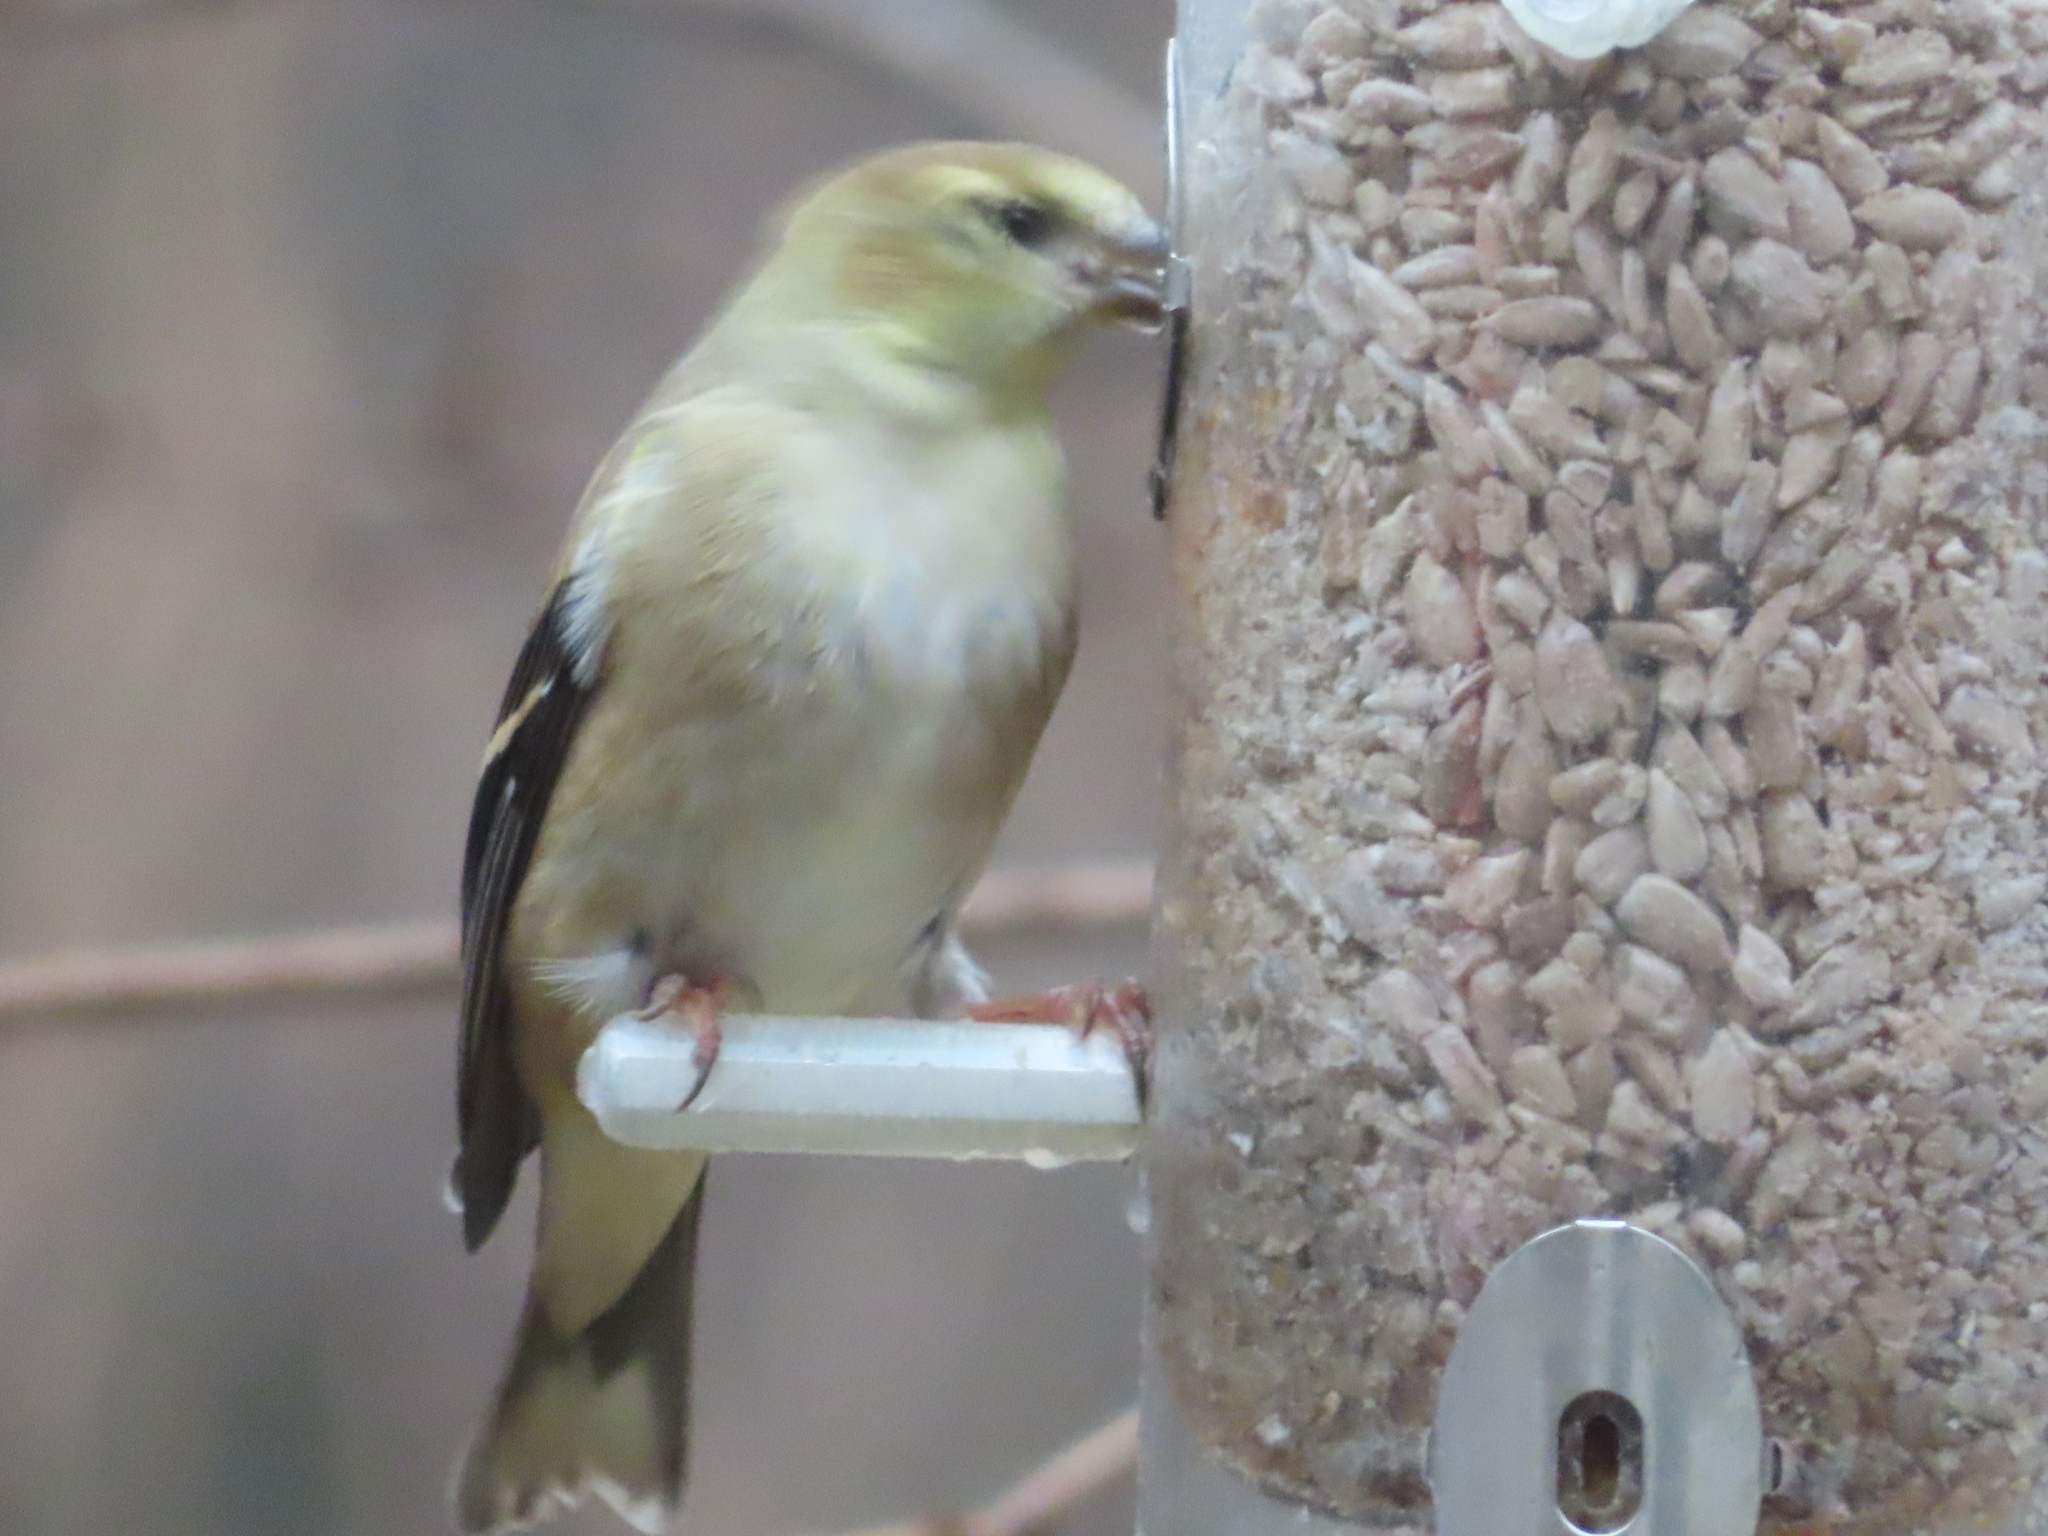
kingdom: Animalia
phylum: Chordata
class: Aves
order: Passeriformes
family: Fringillidae
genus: Spinus
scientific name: Spinus tristis
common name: American goldfinch
